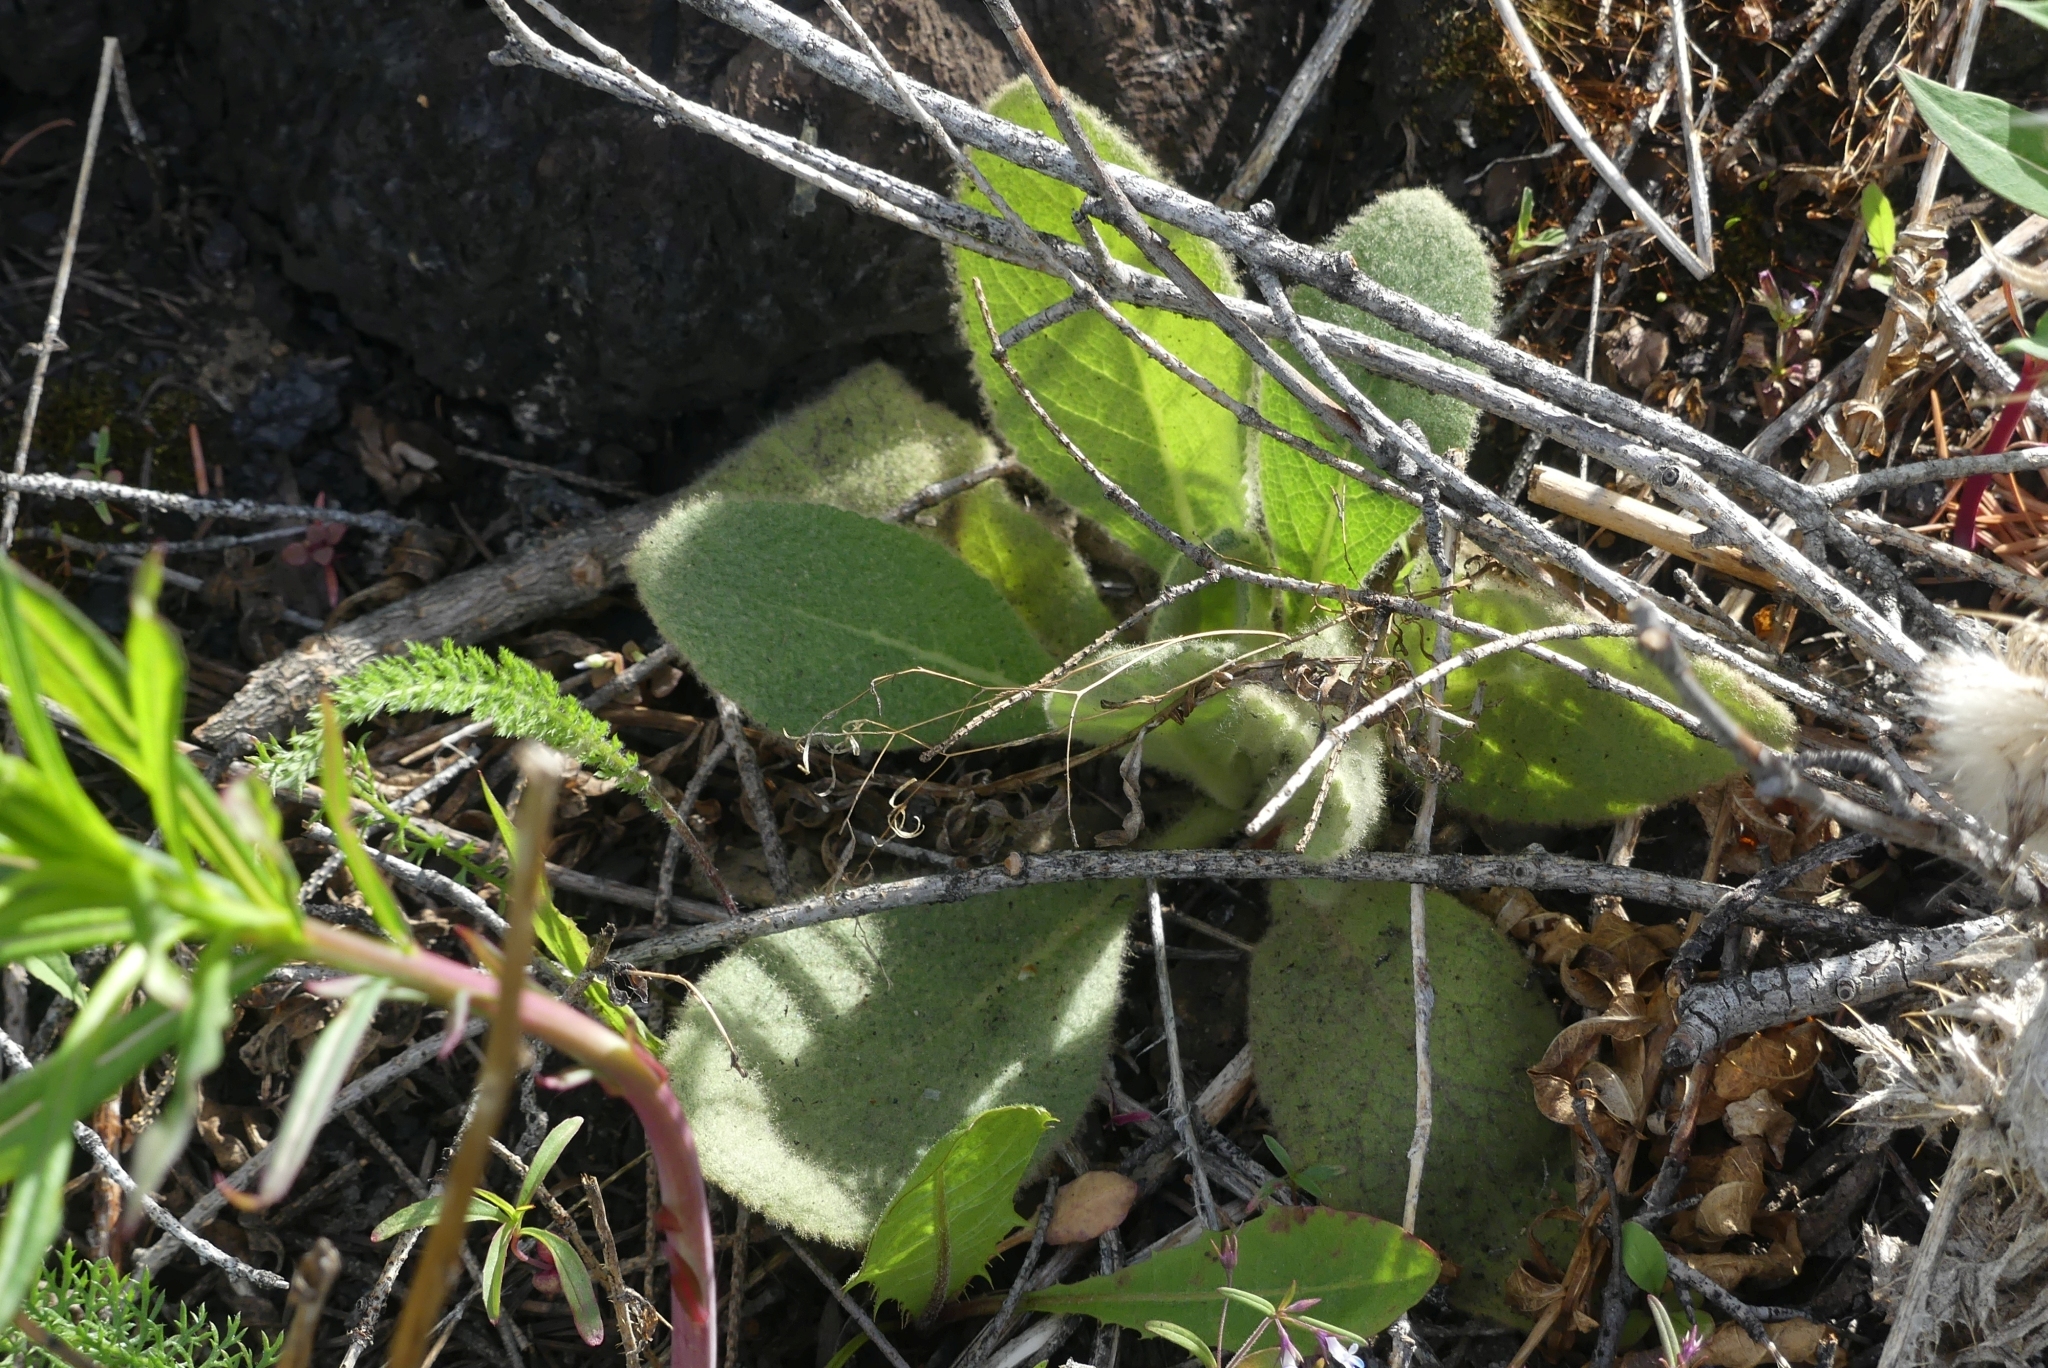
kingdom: Plantae
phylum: Tracheophyta
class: Magnoliopsida
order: Lamiales
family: Scrophulariaceae
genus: Verbascum
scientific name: Verbascum thapsus
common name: Common mullein
